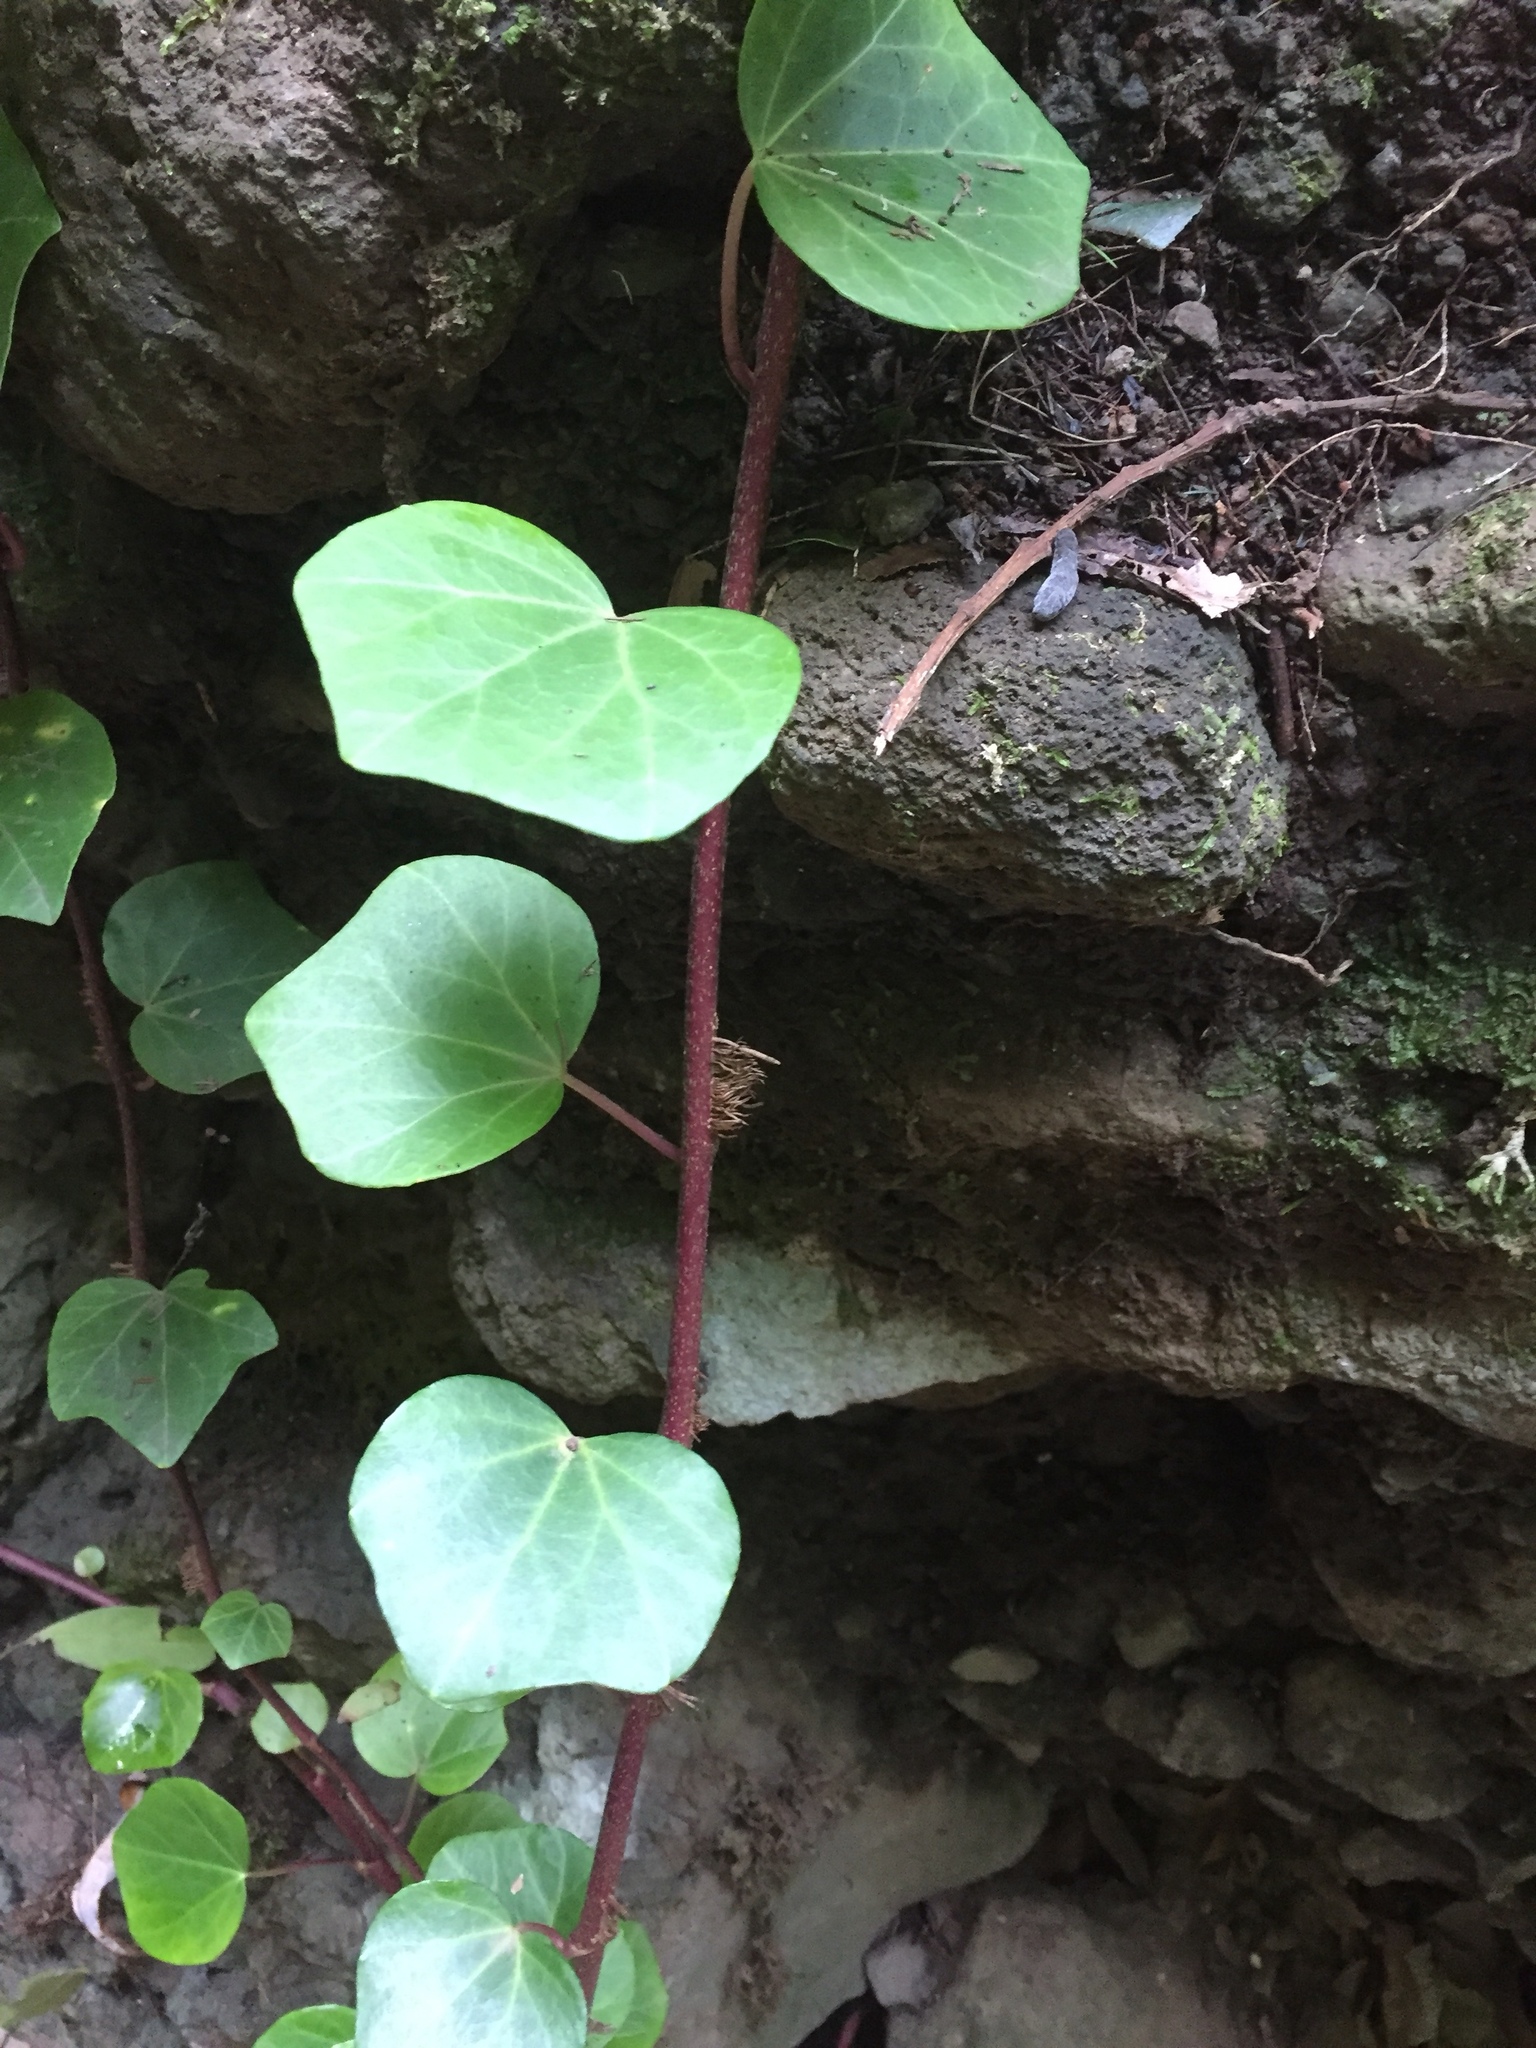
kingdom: Plantae
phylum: Tracheophyta
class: Magnoliopsida
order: Apiales
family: Araliaceae
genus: Hedera
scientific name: Hedera canariensis
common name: Madeira ivy
